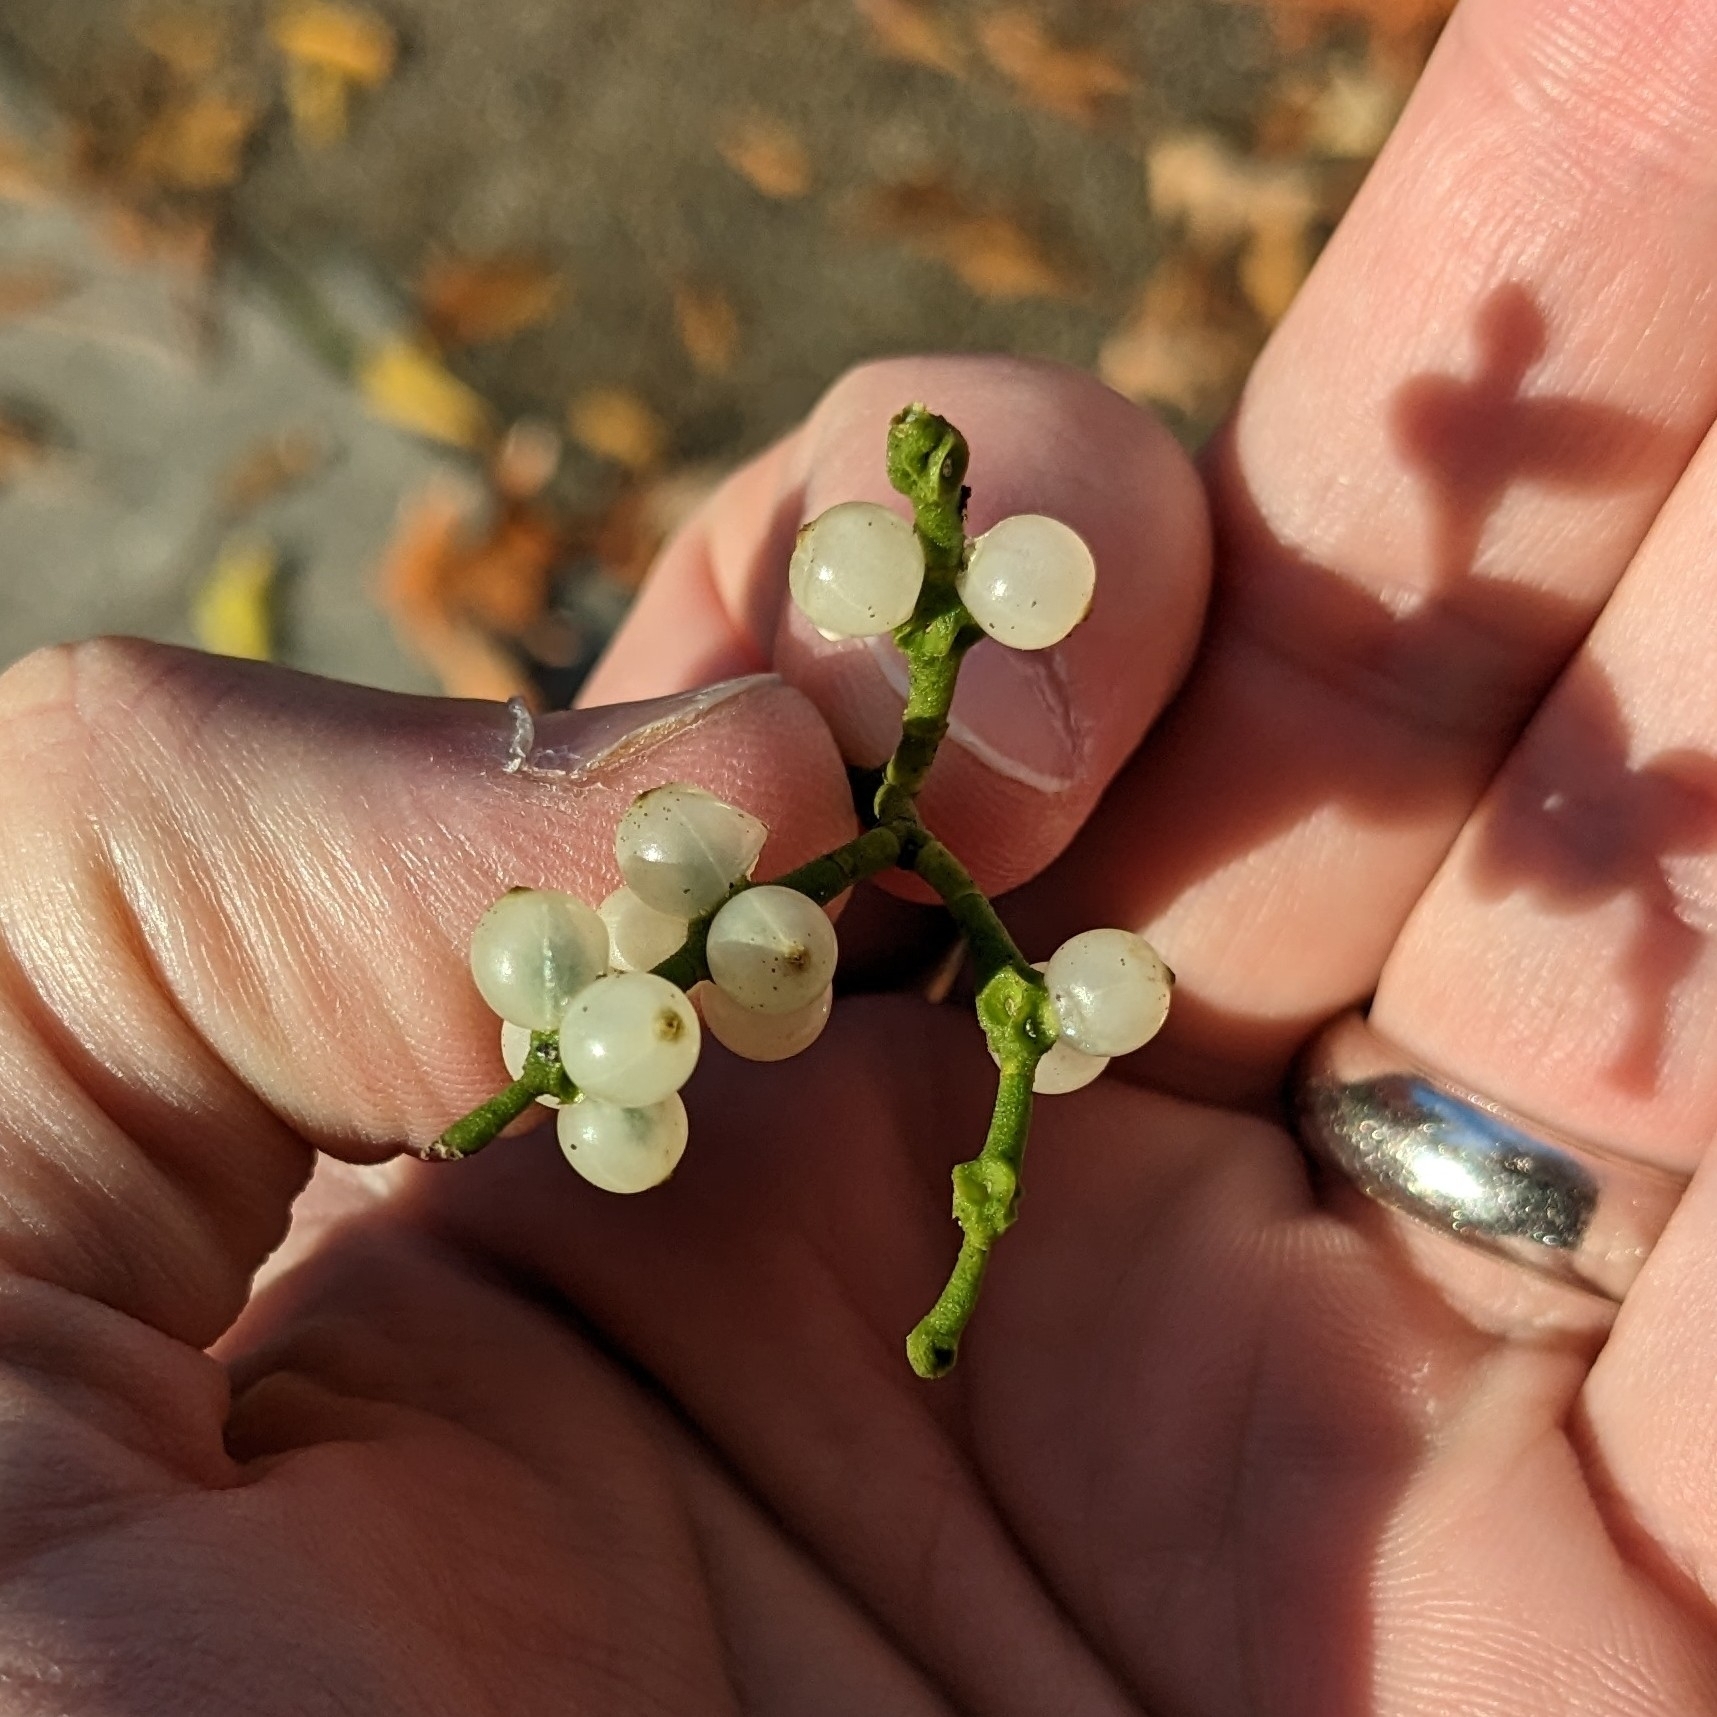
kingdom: Plantae
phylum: Tracheophyta
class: Magnoliopsida
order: Santalales
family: Viscaceae
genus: Phoradendron
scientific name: Phoradendron leucarpum
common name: Pacific mistletoe
